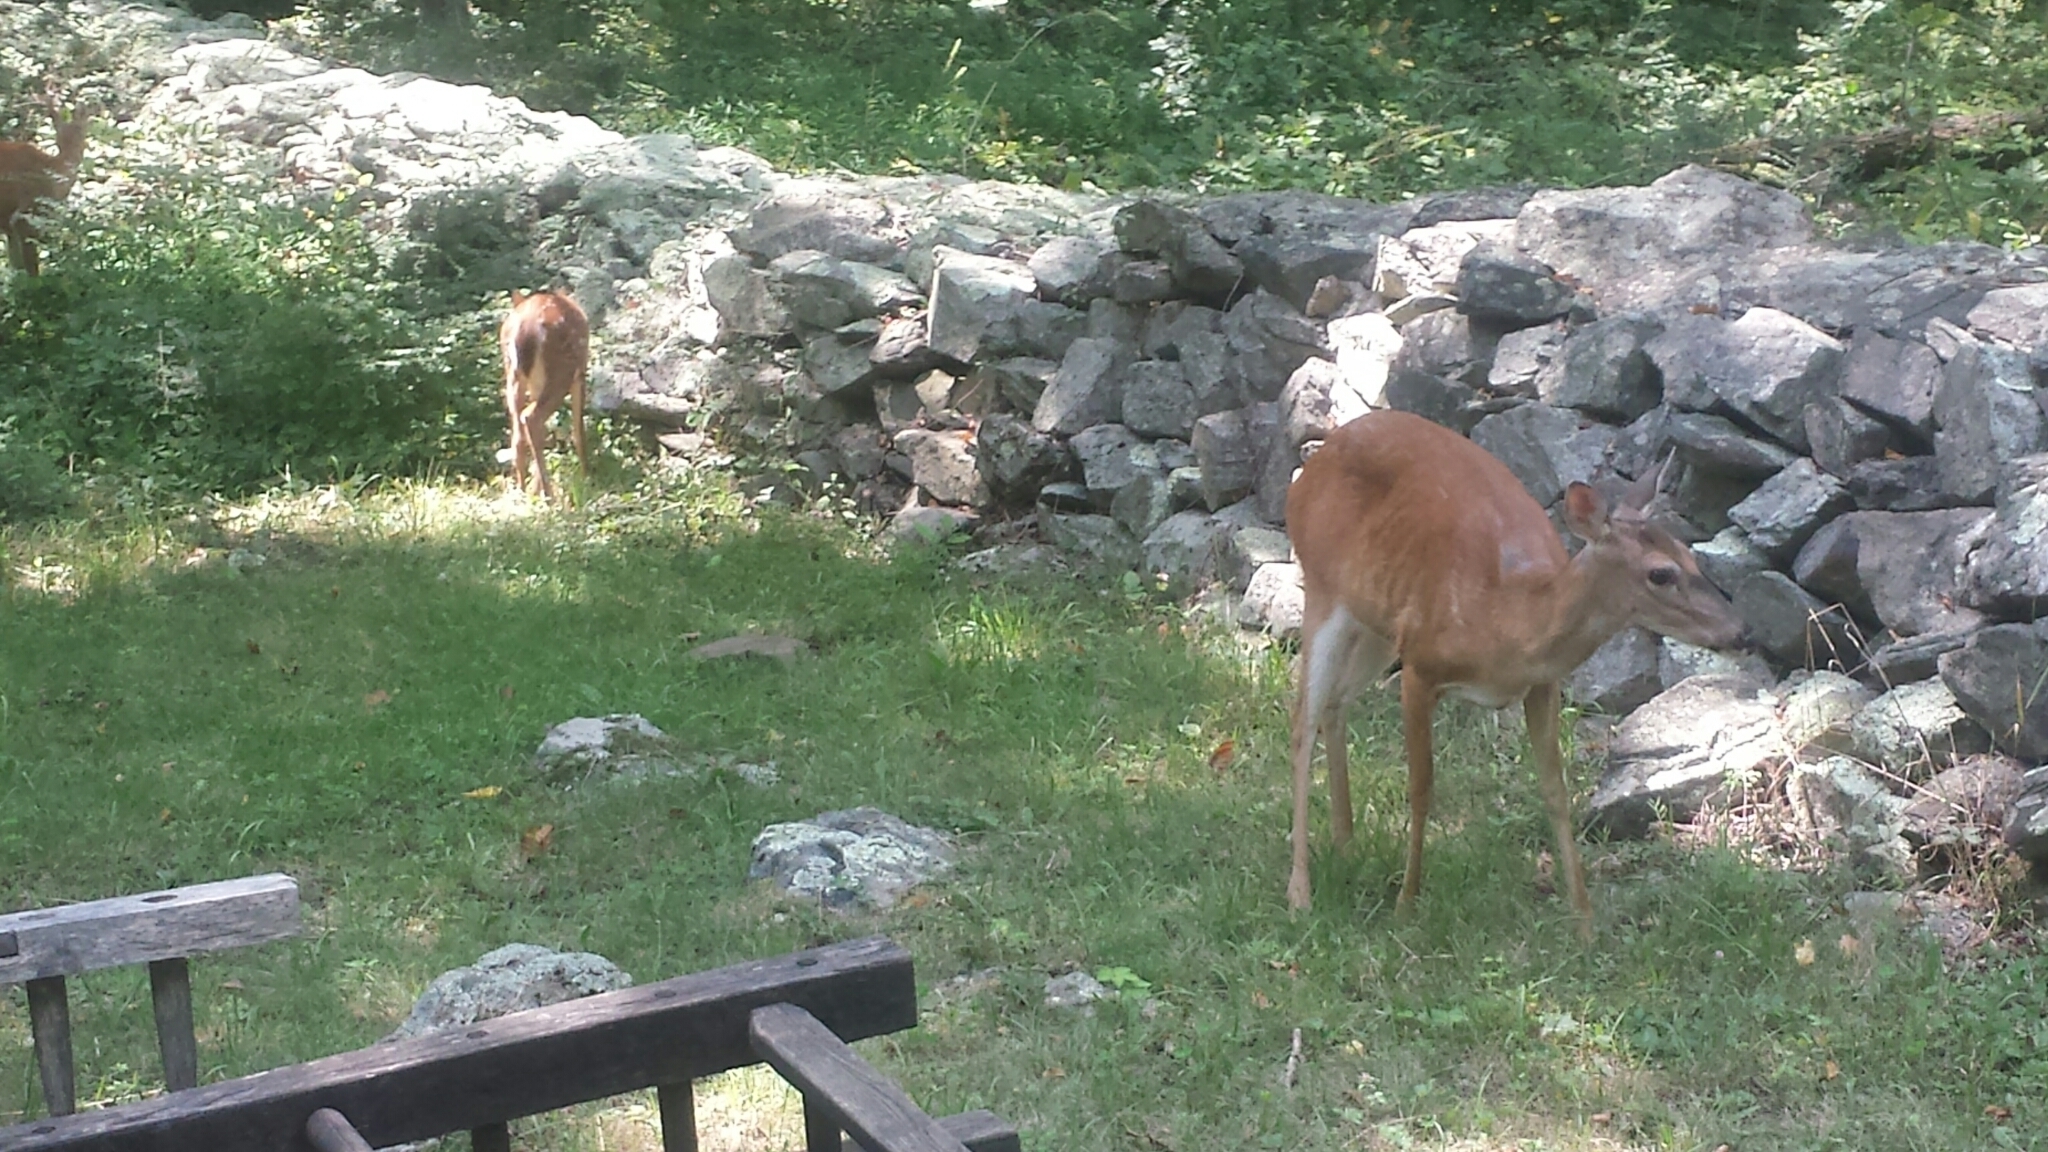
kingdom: Animalia
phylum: Chordata
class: Mammalia
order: Artiodactyla
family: Cervidae
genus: Odocoileus
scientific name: Odocoileus virginianus
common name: White-tailed deer
